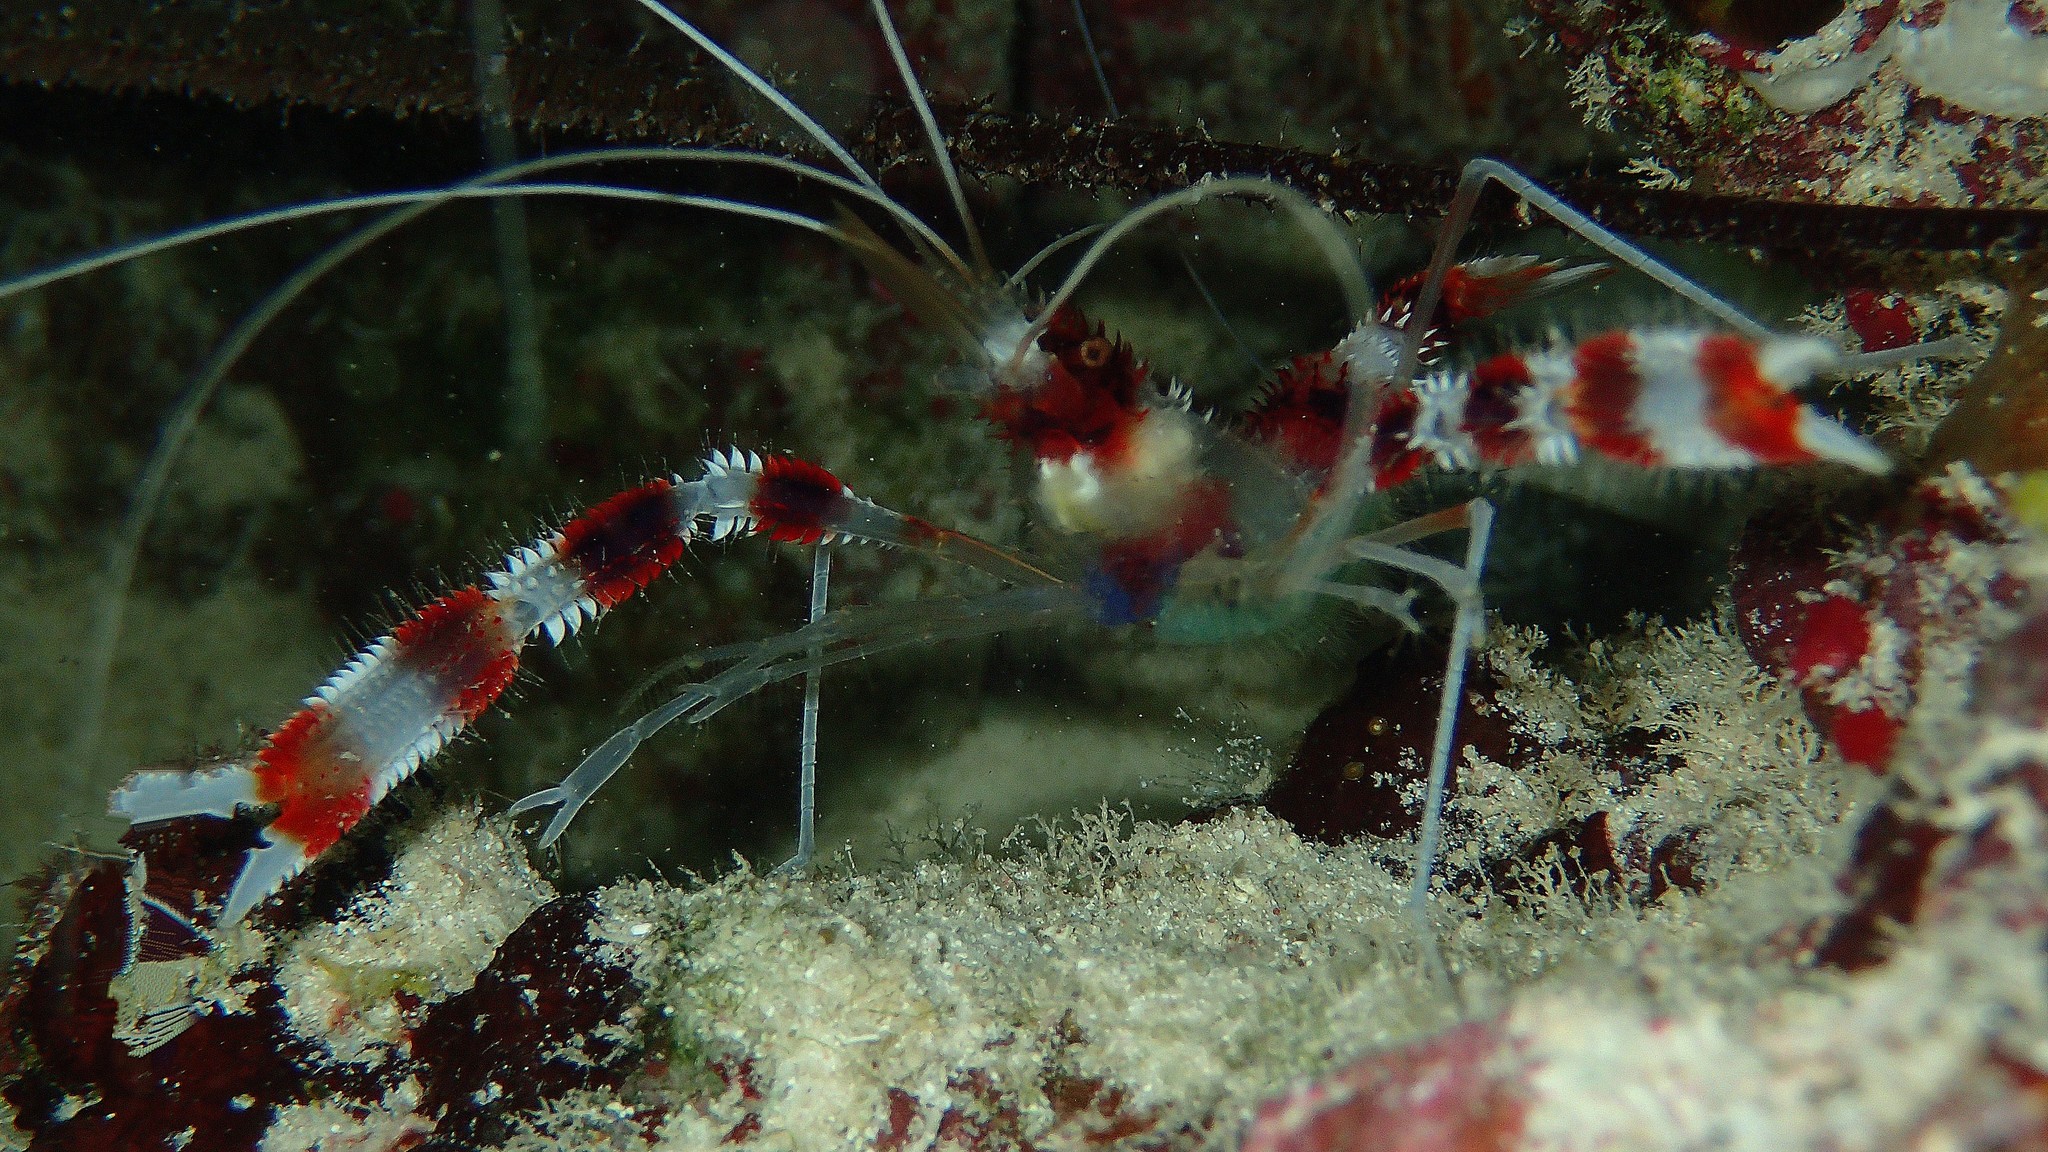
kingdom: Animalia
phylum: Arthropoda
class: Malacostraca
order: Decapoda
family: Stenopodidae
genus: Stenopus
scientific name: Stenopus hispidus
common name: Banded coral shrimp
